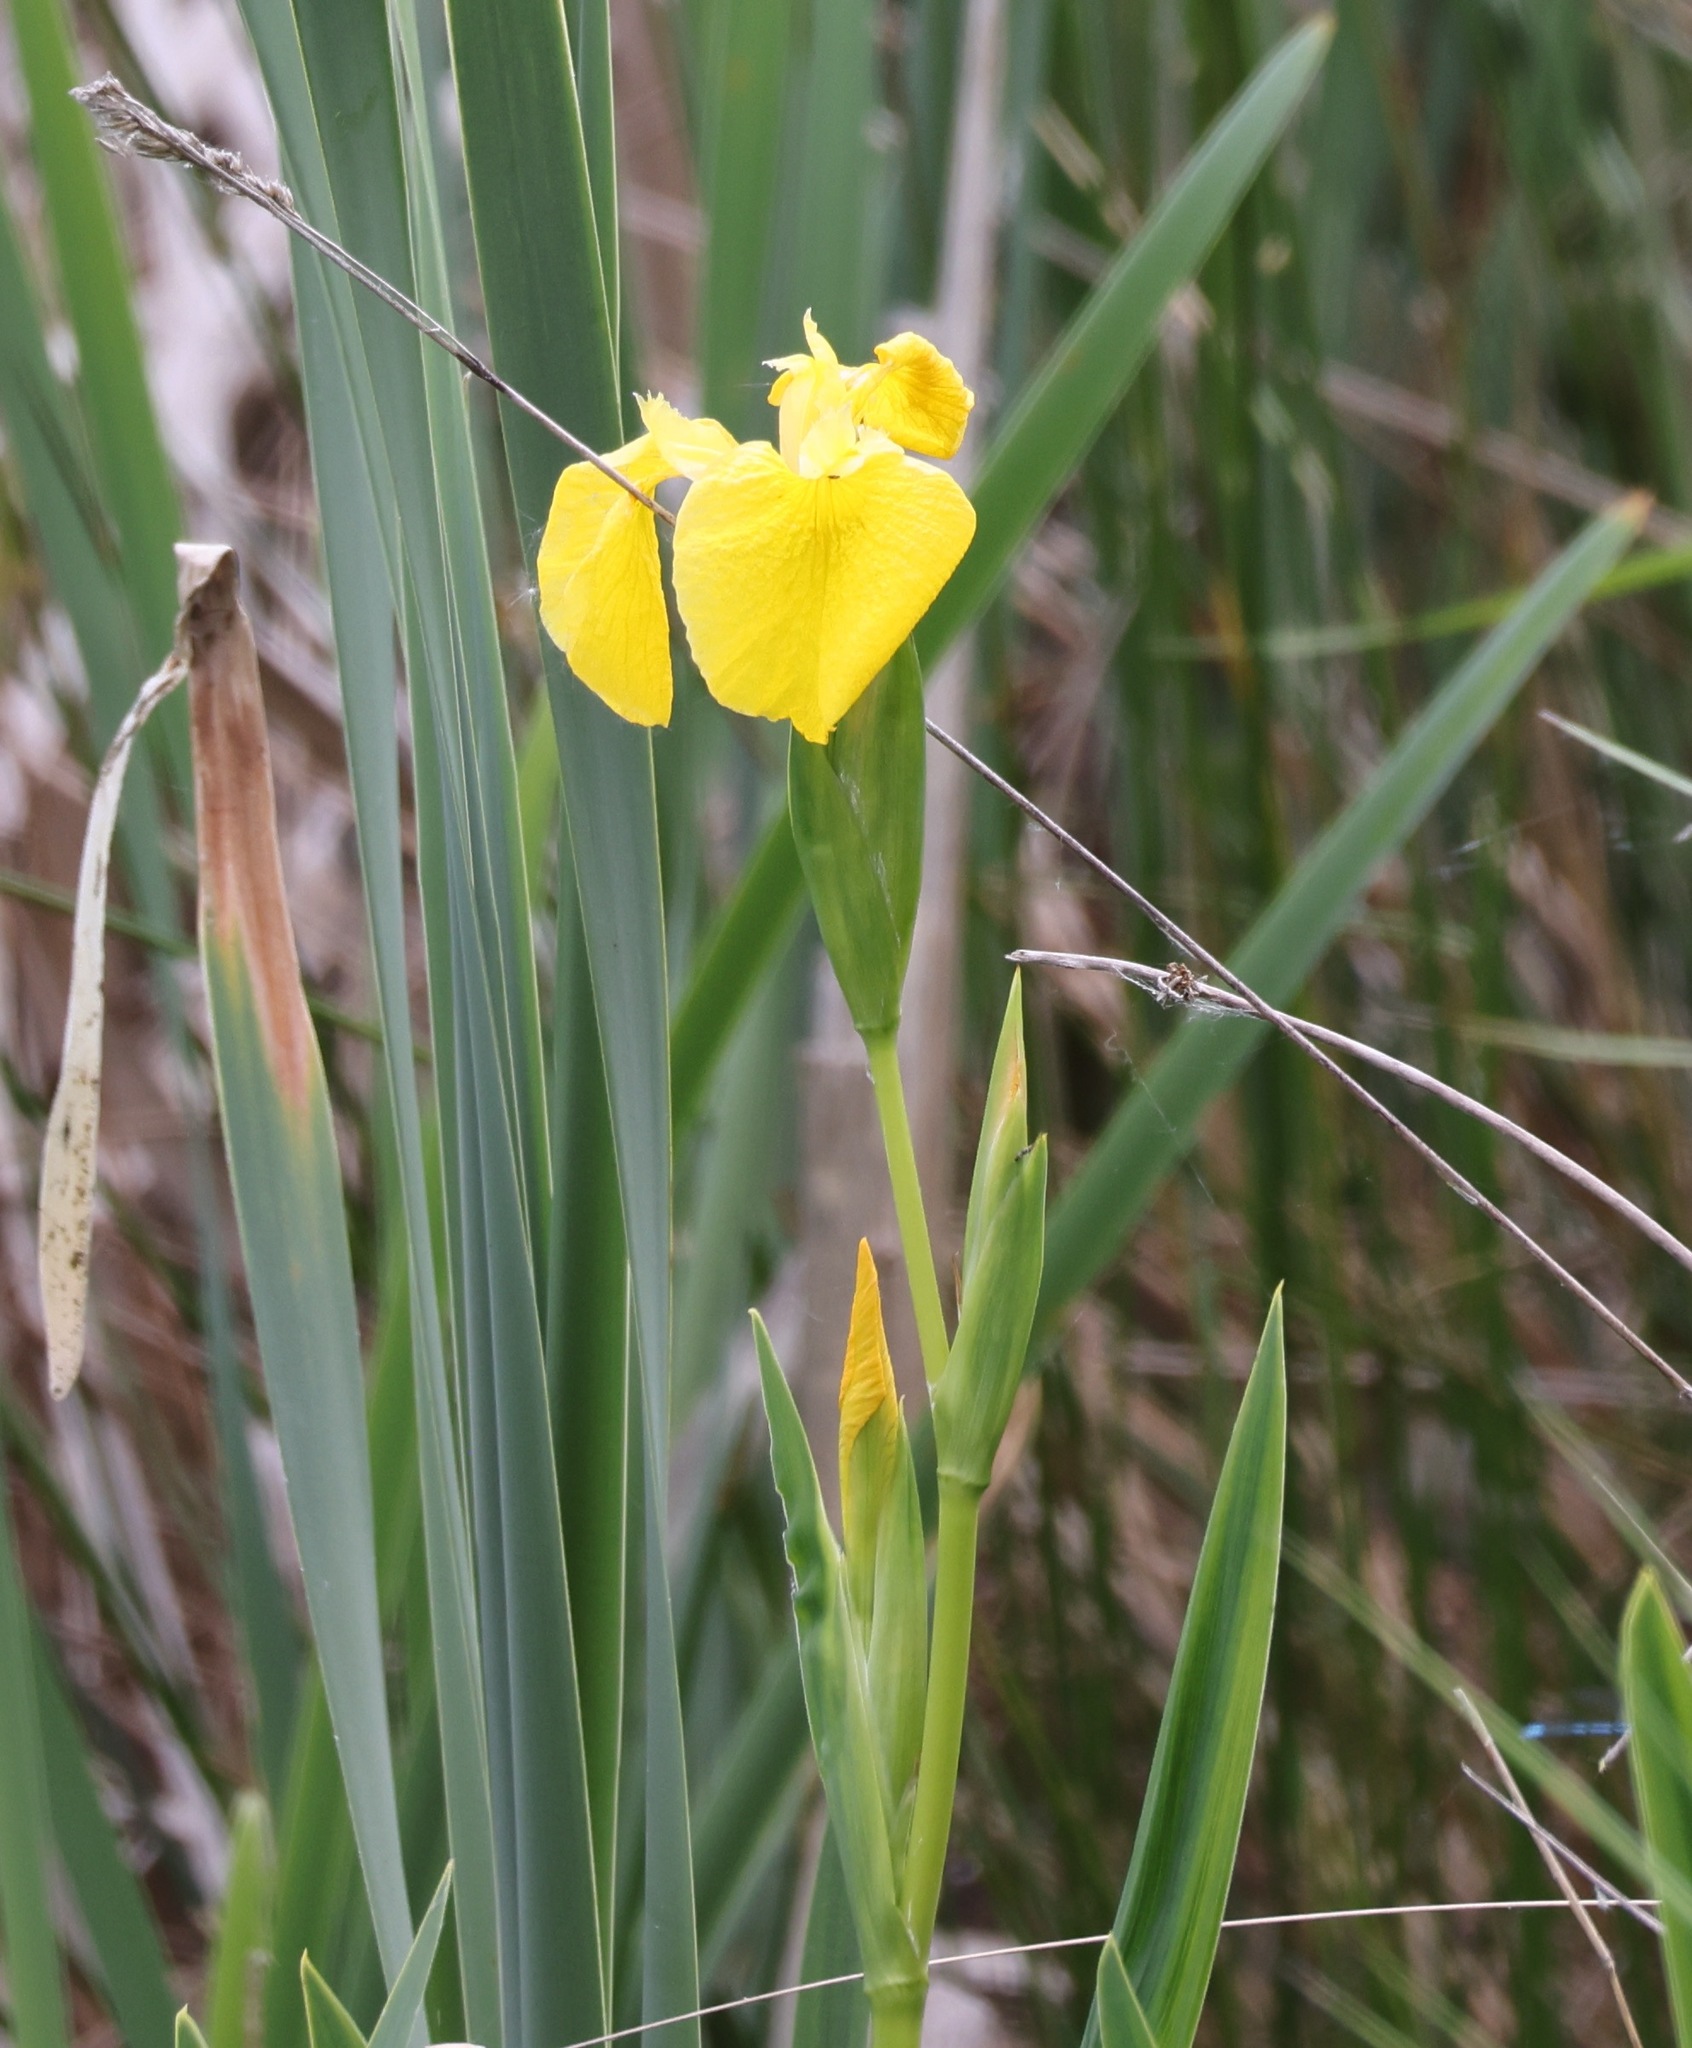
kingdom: Plantae
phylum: Tracheophyta
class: Liliopsida
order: Asparagales
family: Iridaceae
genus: Iris
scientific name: Iris pseudacorus
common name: Yellow flag
